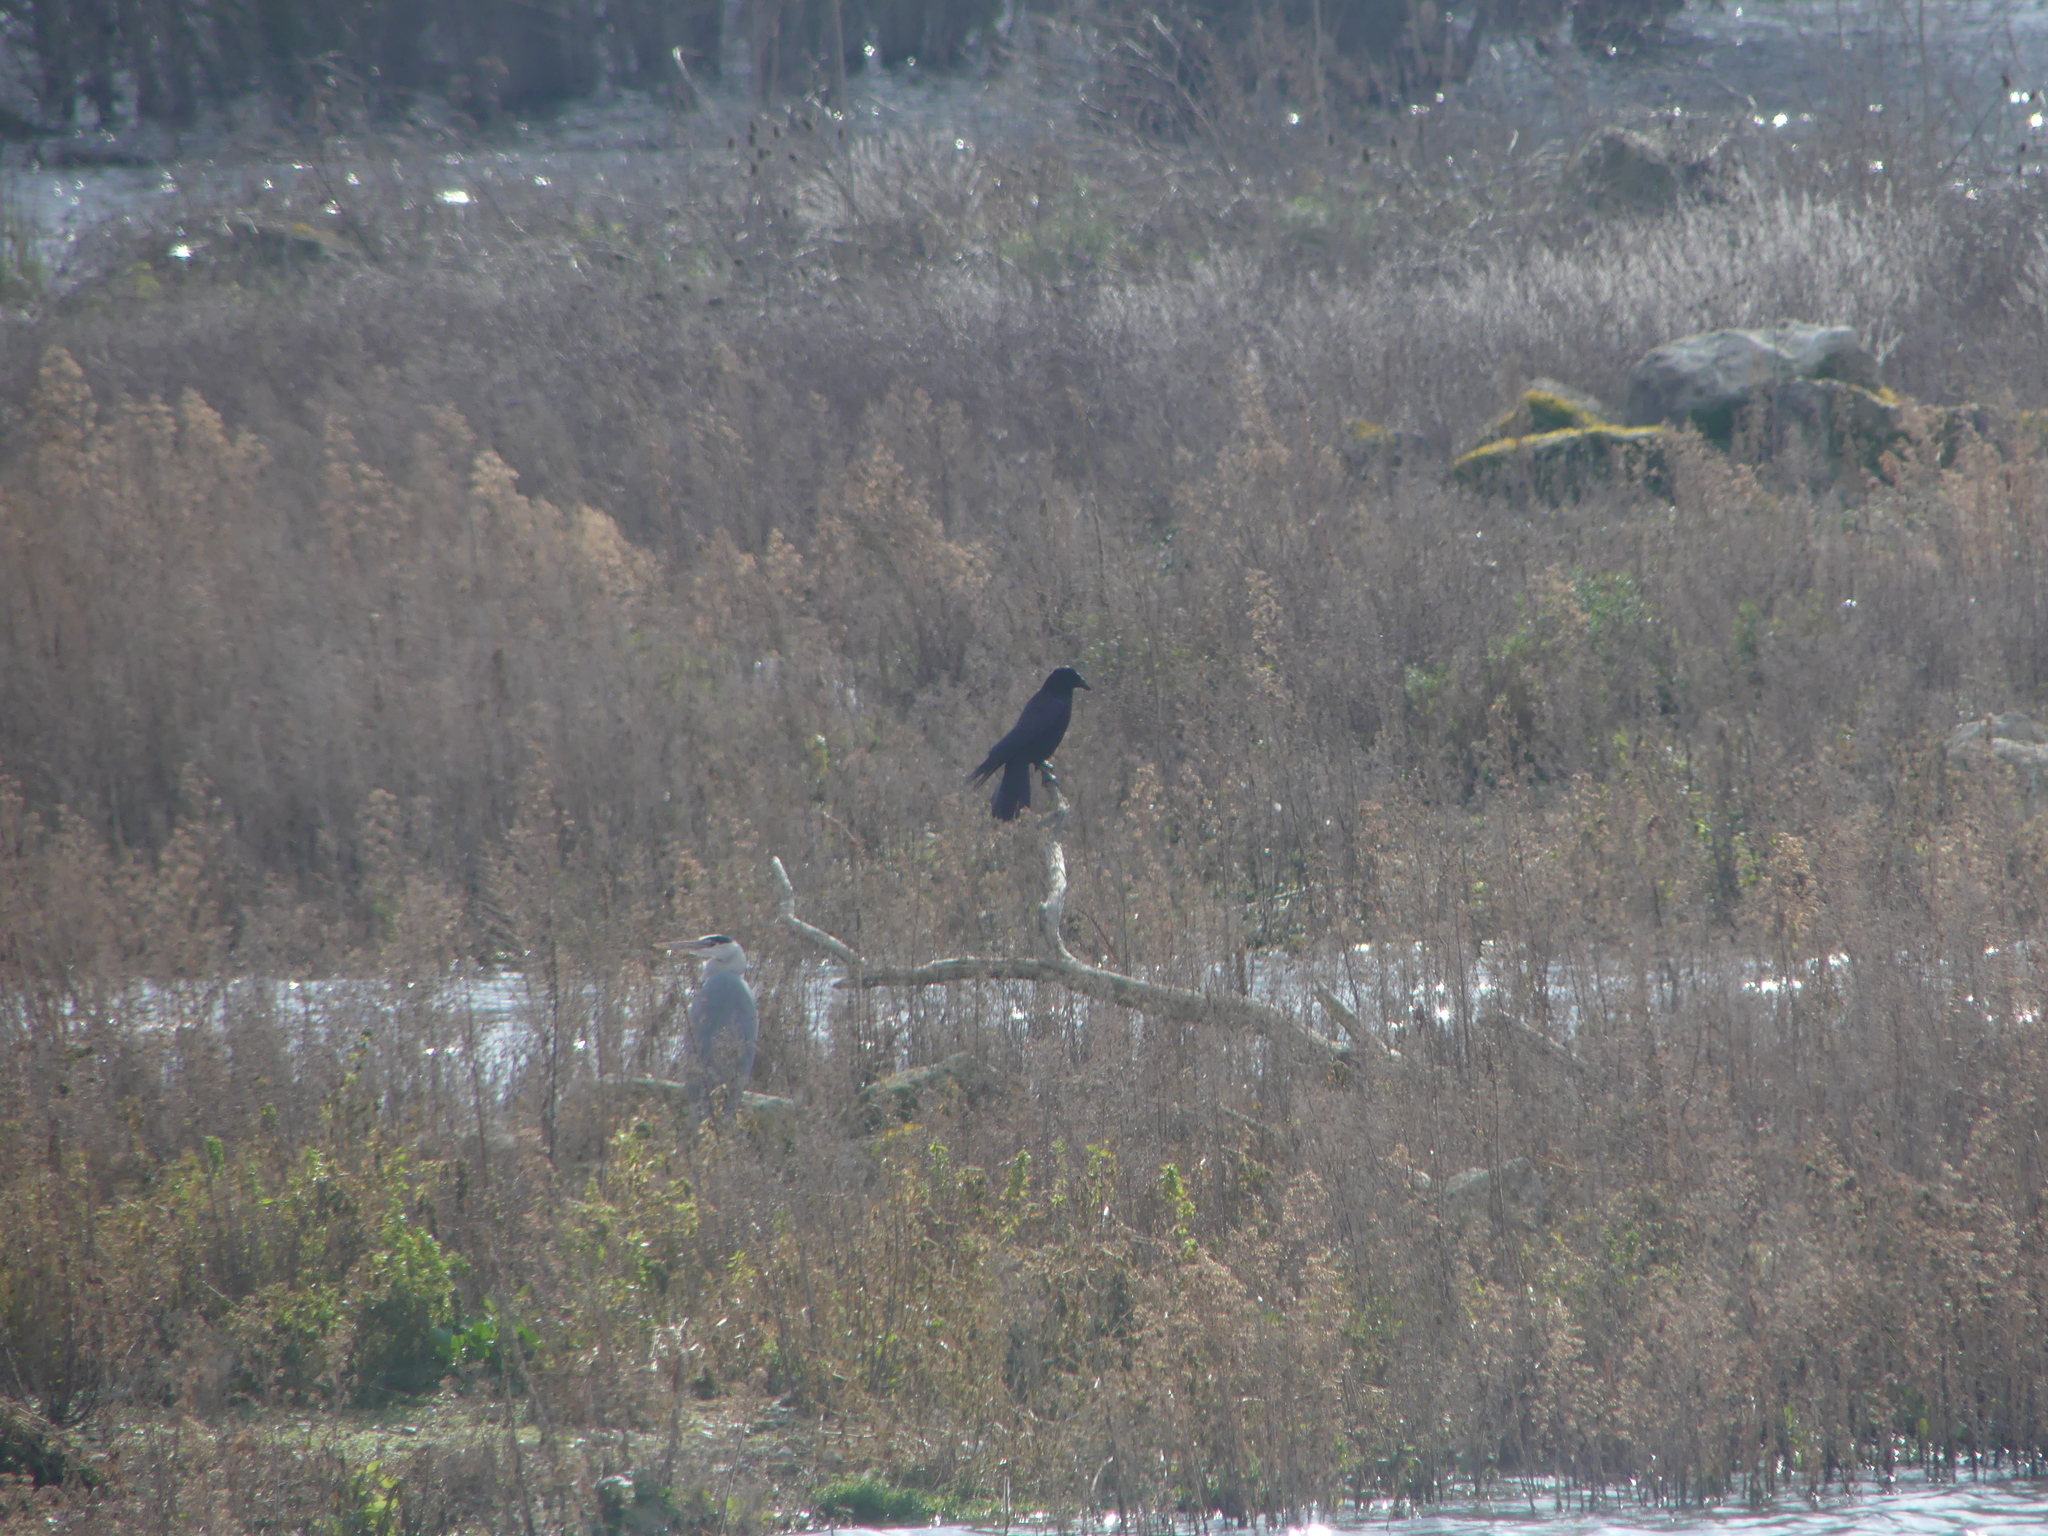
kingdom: Animalia
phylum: Chordata
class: Aves
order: Passeriformes
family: Corvidae
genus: Corvus
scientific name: Corvus corone
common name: Carrion crow
